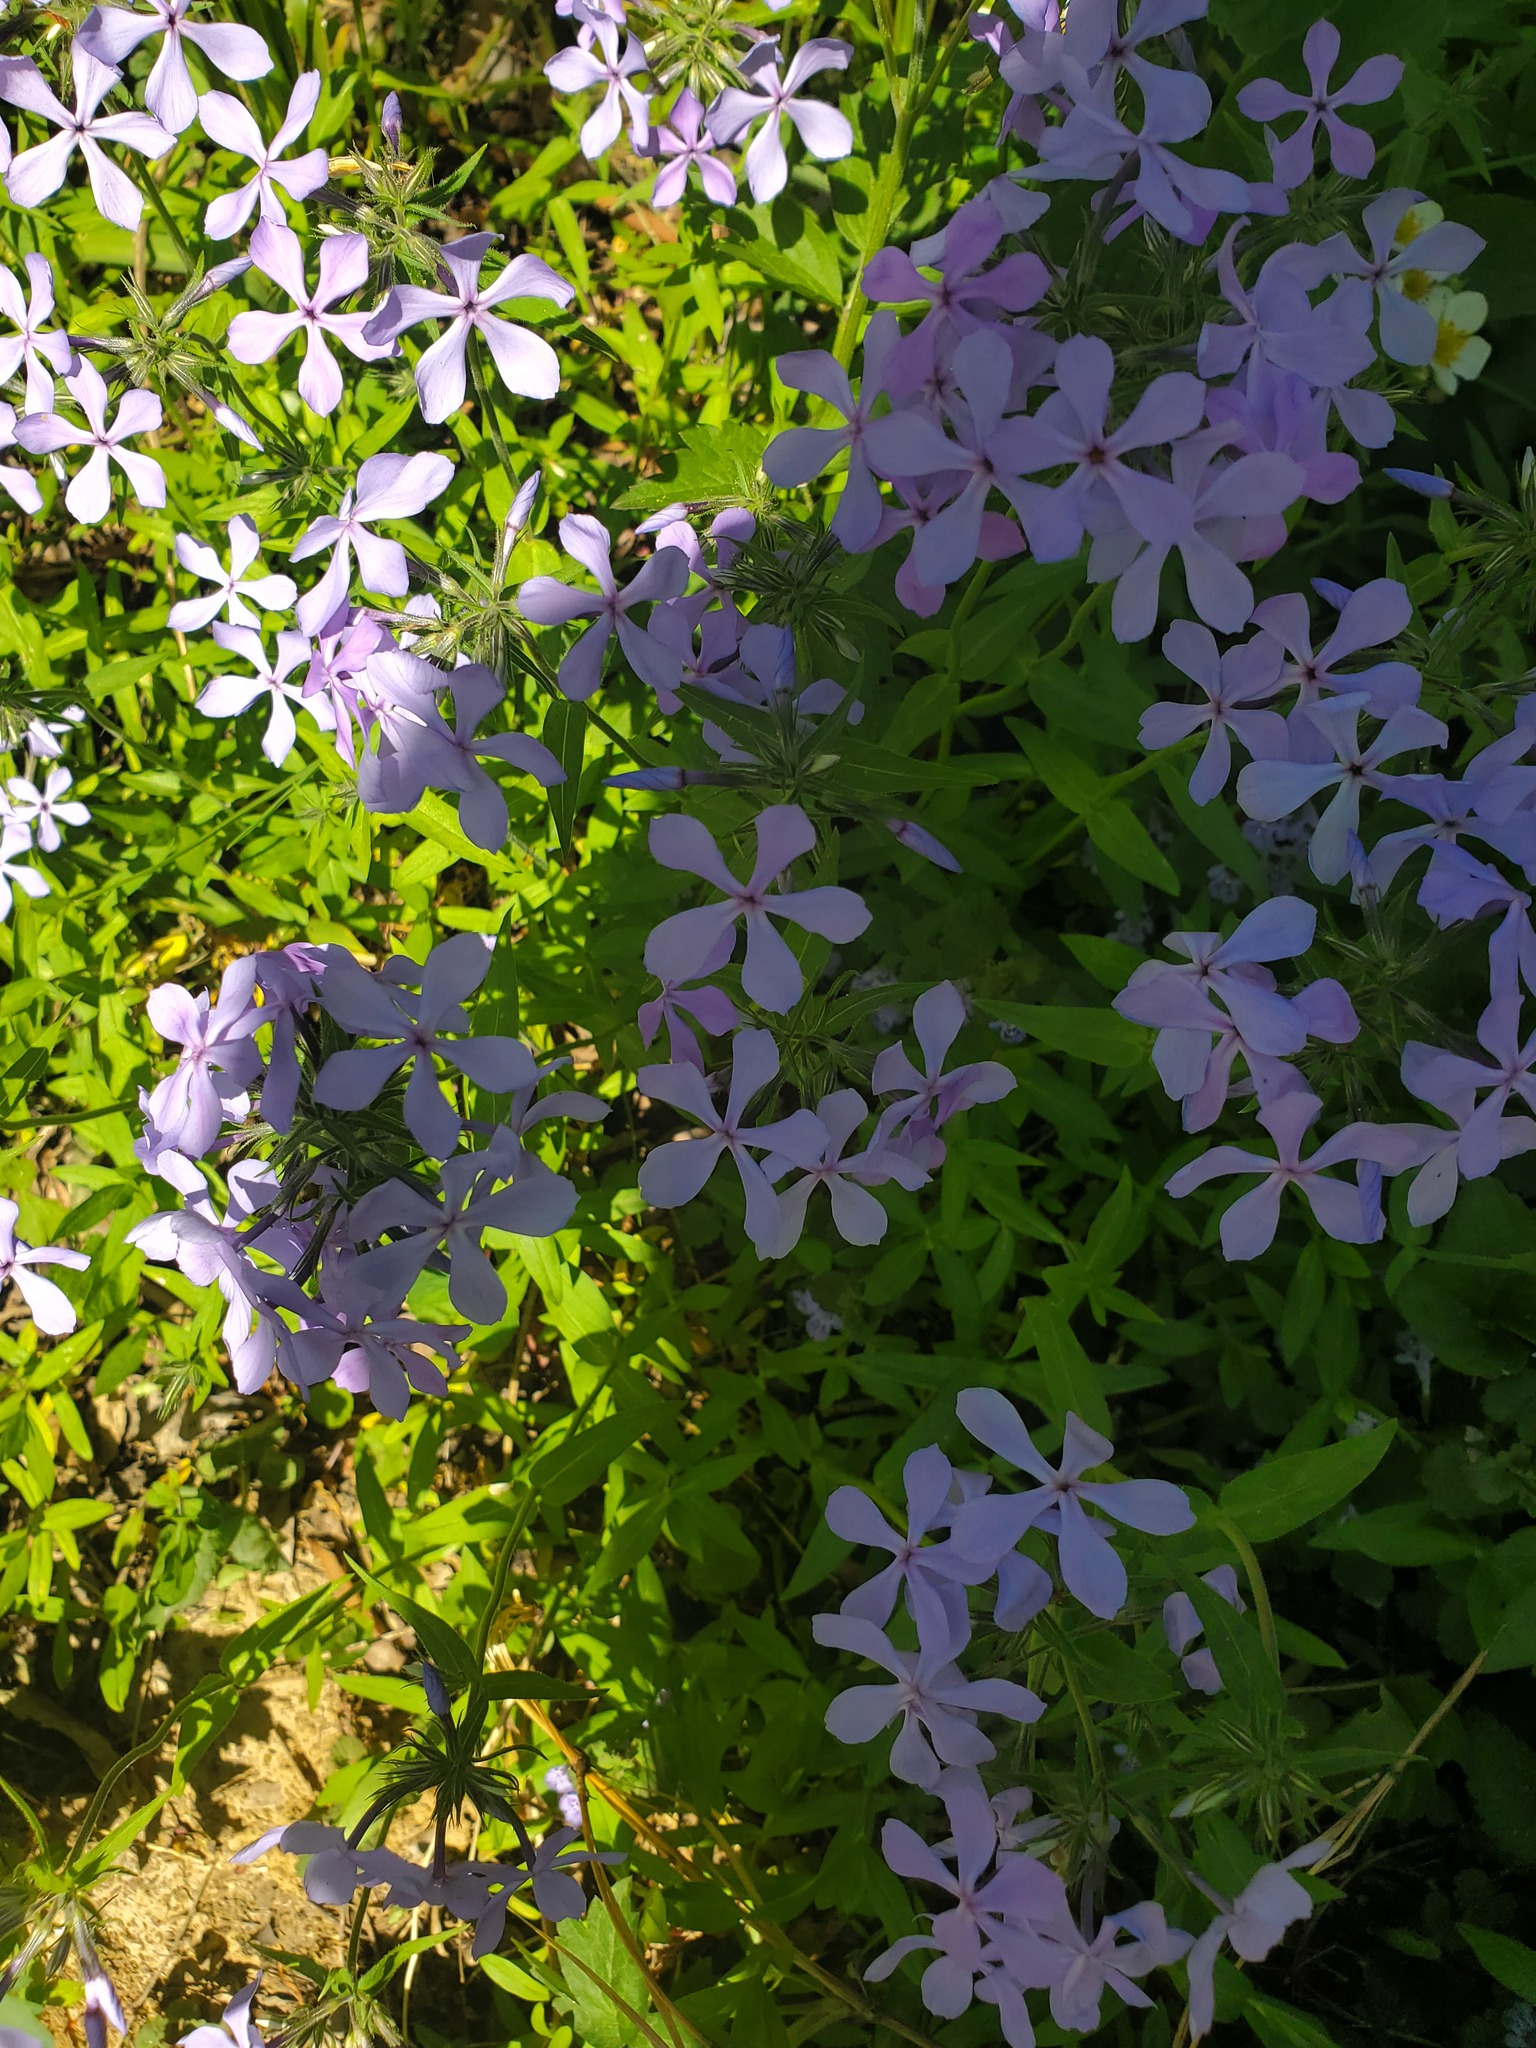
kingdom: Plantae
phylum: Tracheophyta
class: Magnoliopsida
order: Ericales
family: Polemoniaceae
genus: Phlox
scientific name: Phlox divaricata
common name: Blue phlox
